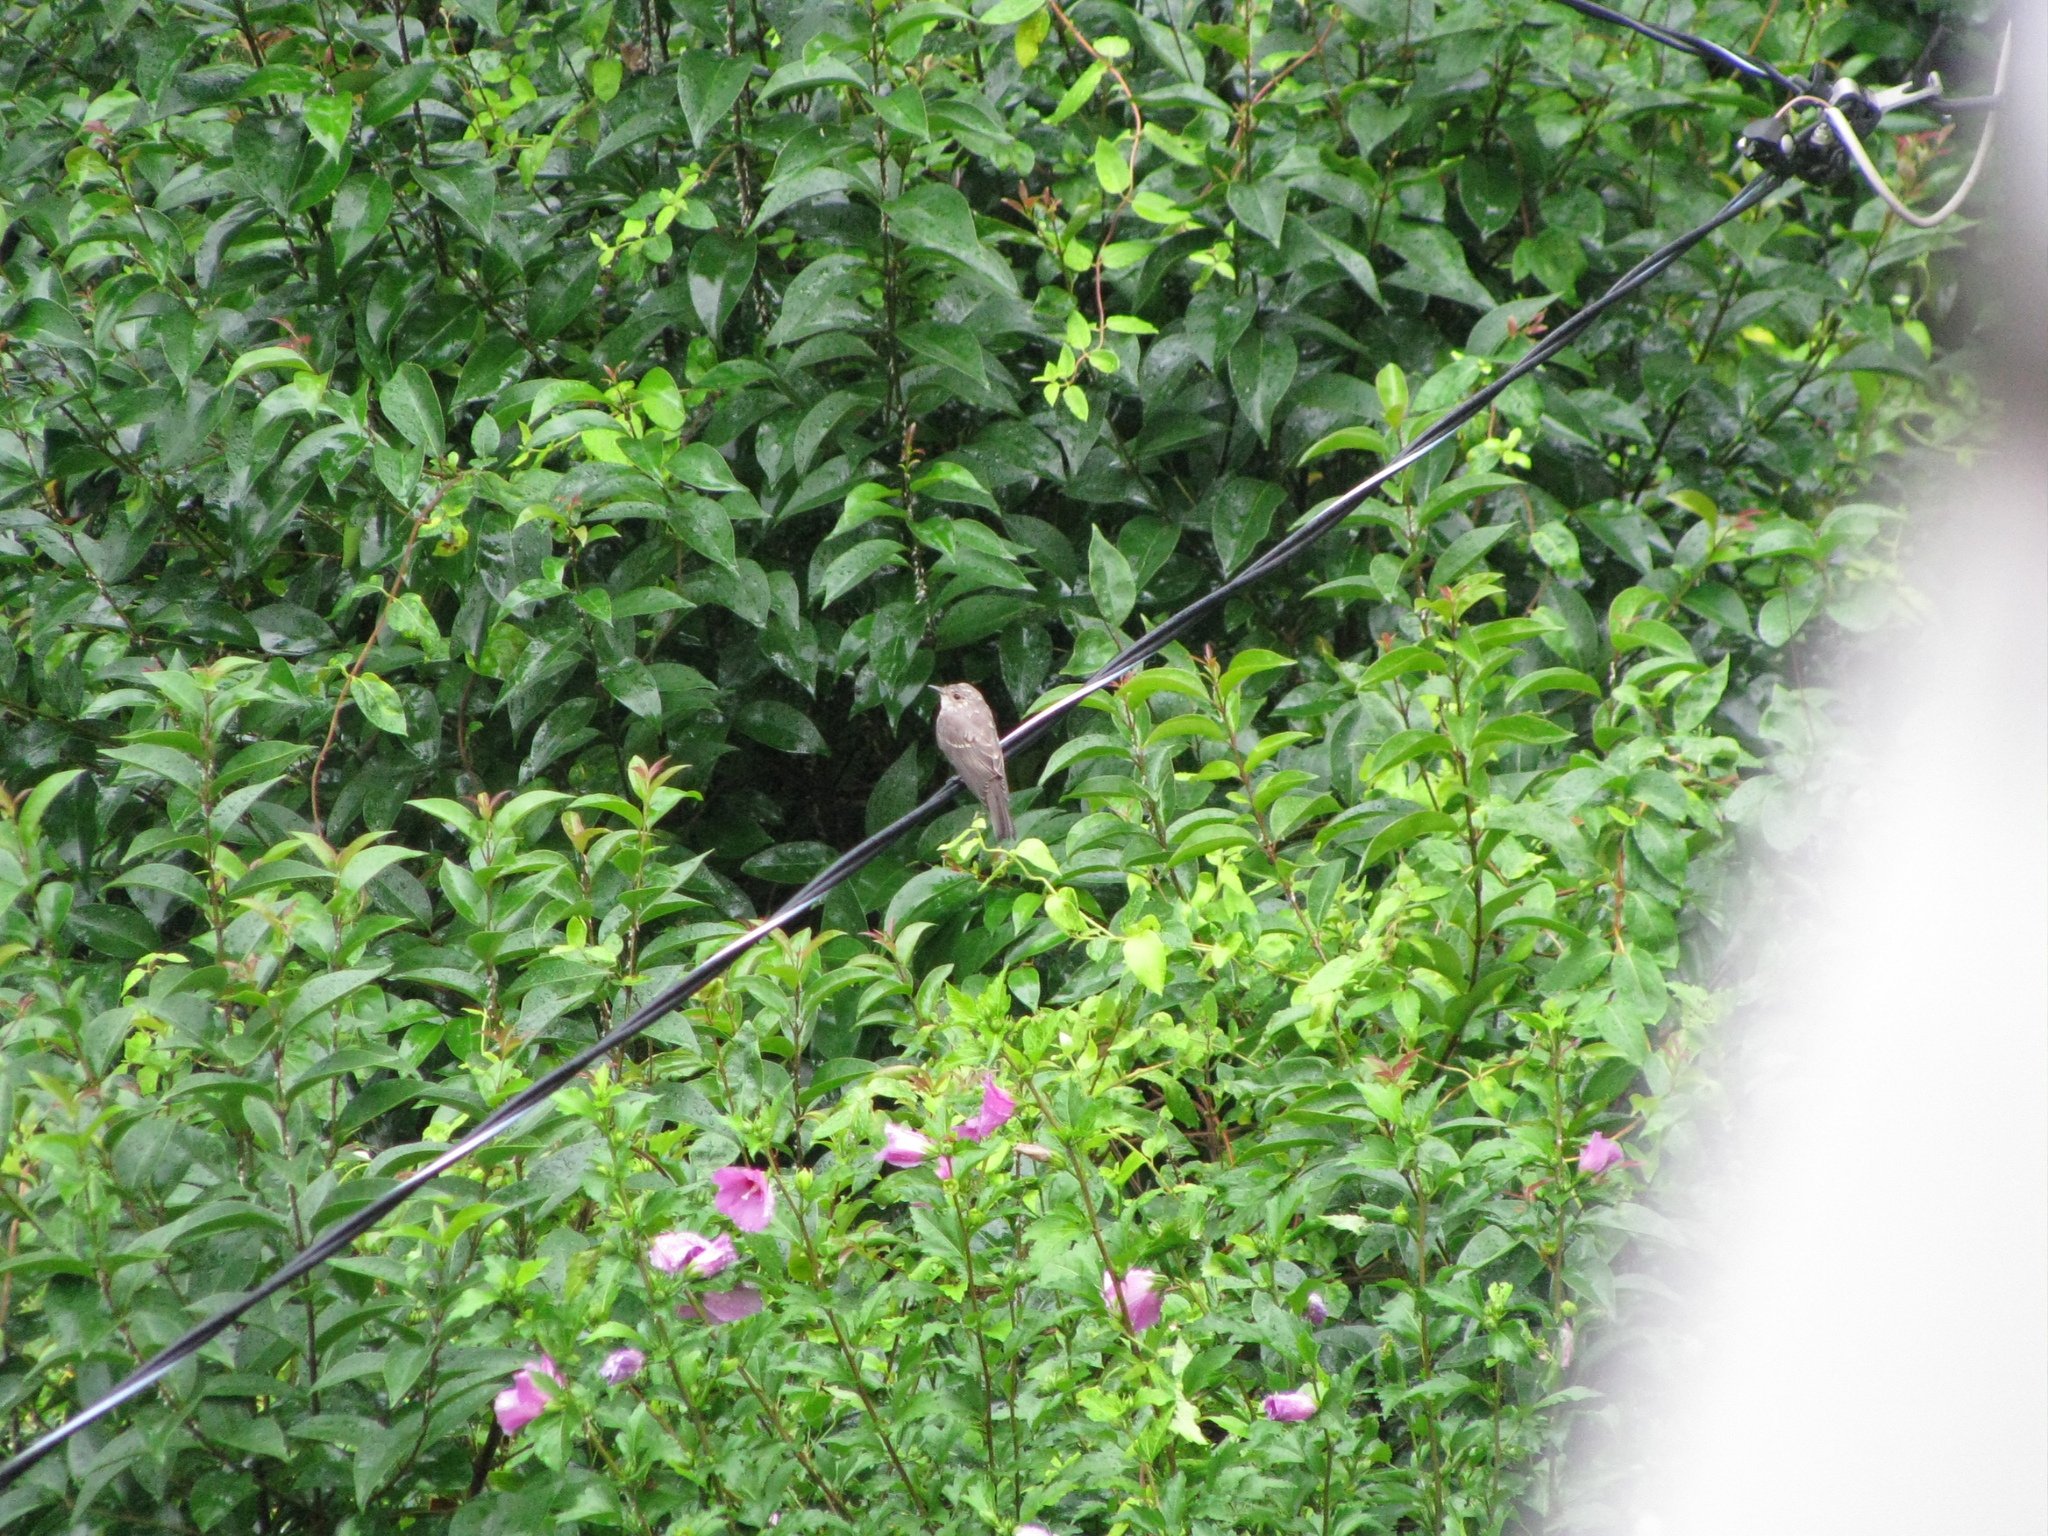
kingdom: Animalia
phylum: Chordata
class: Aves
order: Passeriformes
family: Muscicapidae
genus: Muscicapa
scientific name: Muscicapa striata
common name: Spotted flycatcher
